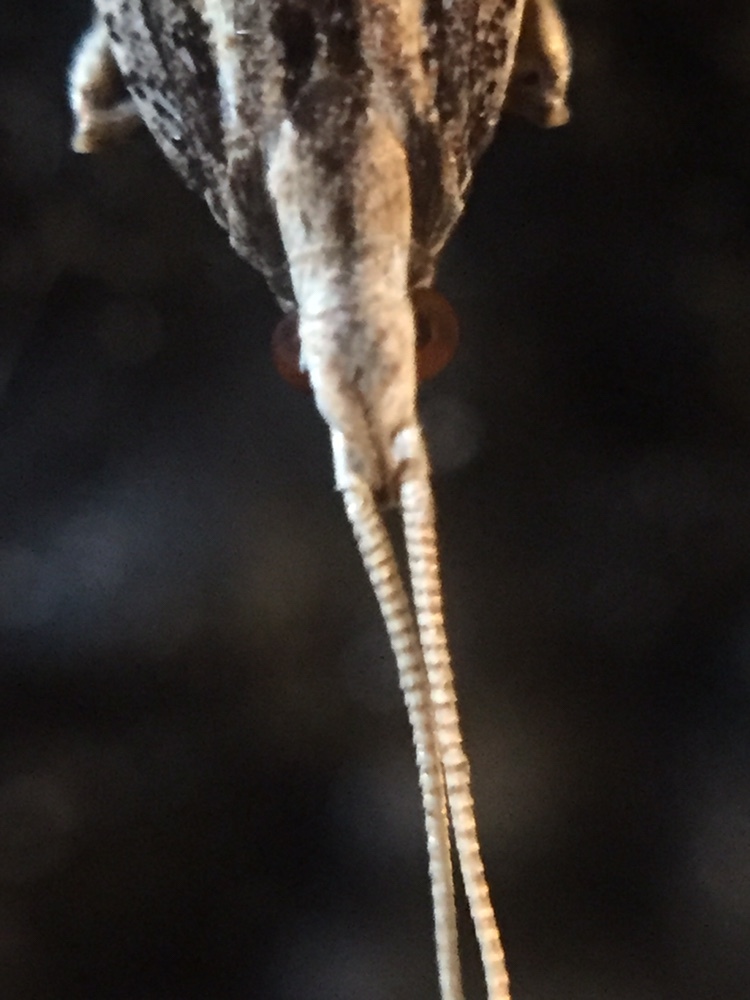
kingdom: Animalia
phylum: Arthropoda
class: Insecta
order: Lepidoptera
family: Lecithoceridae
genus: Sarisophora
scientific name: Sarisophora leucoscia
